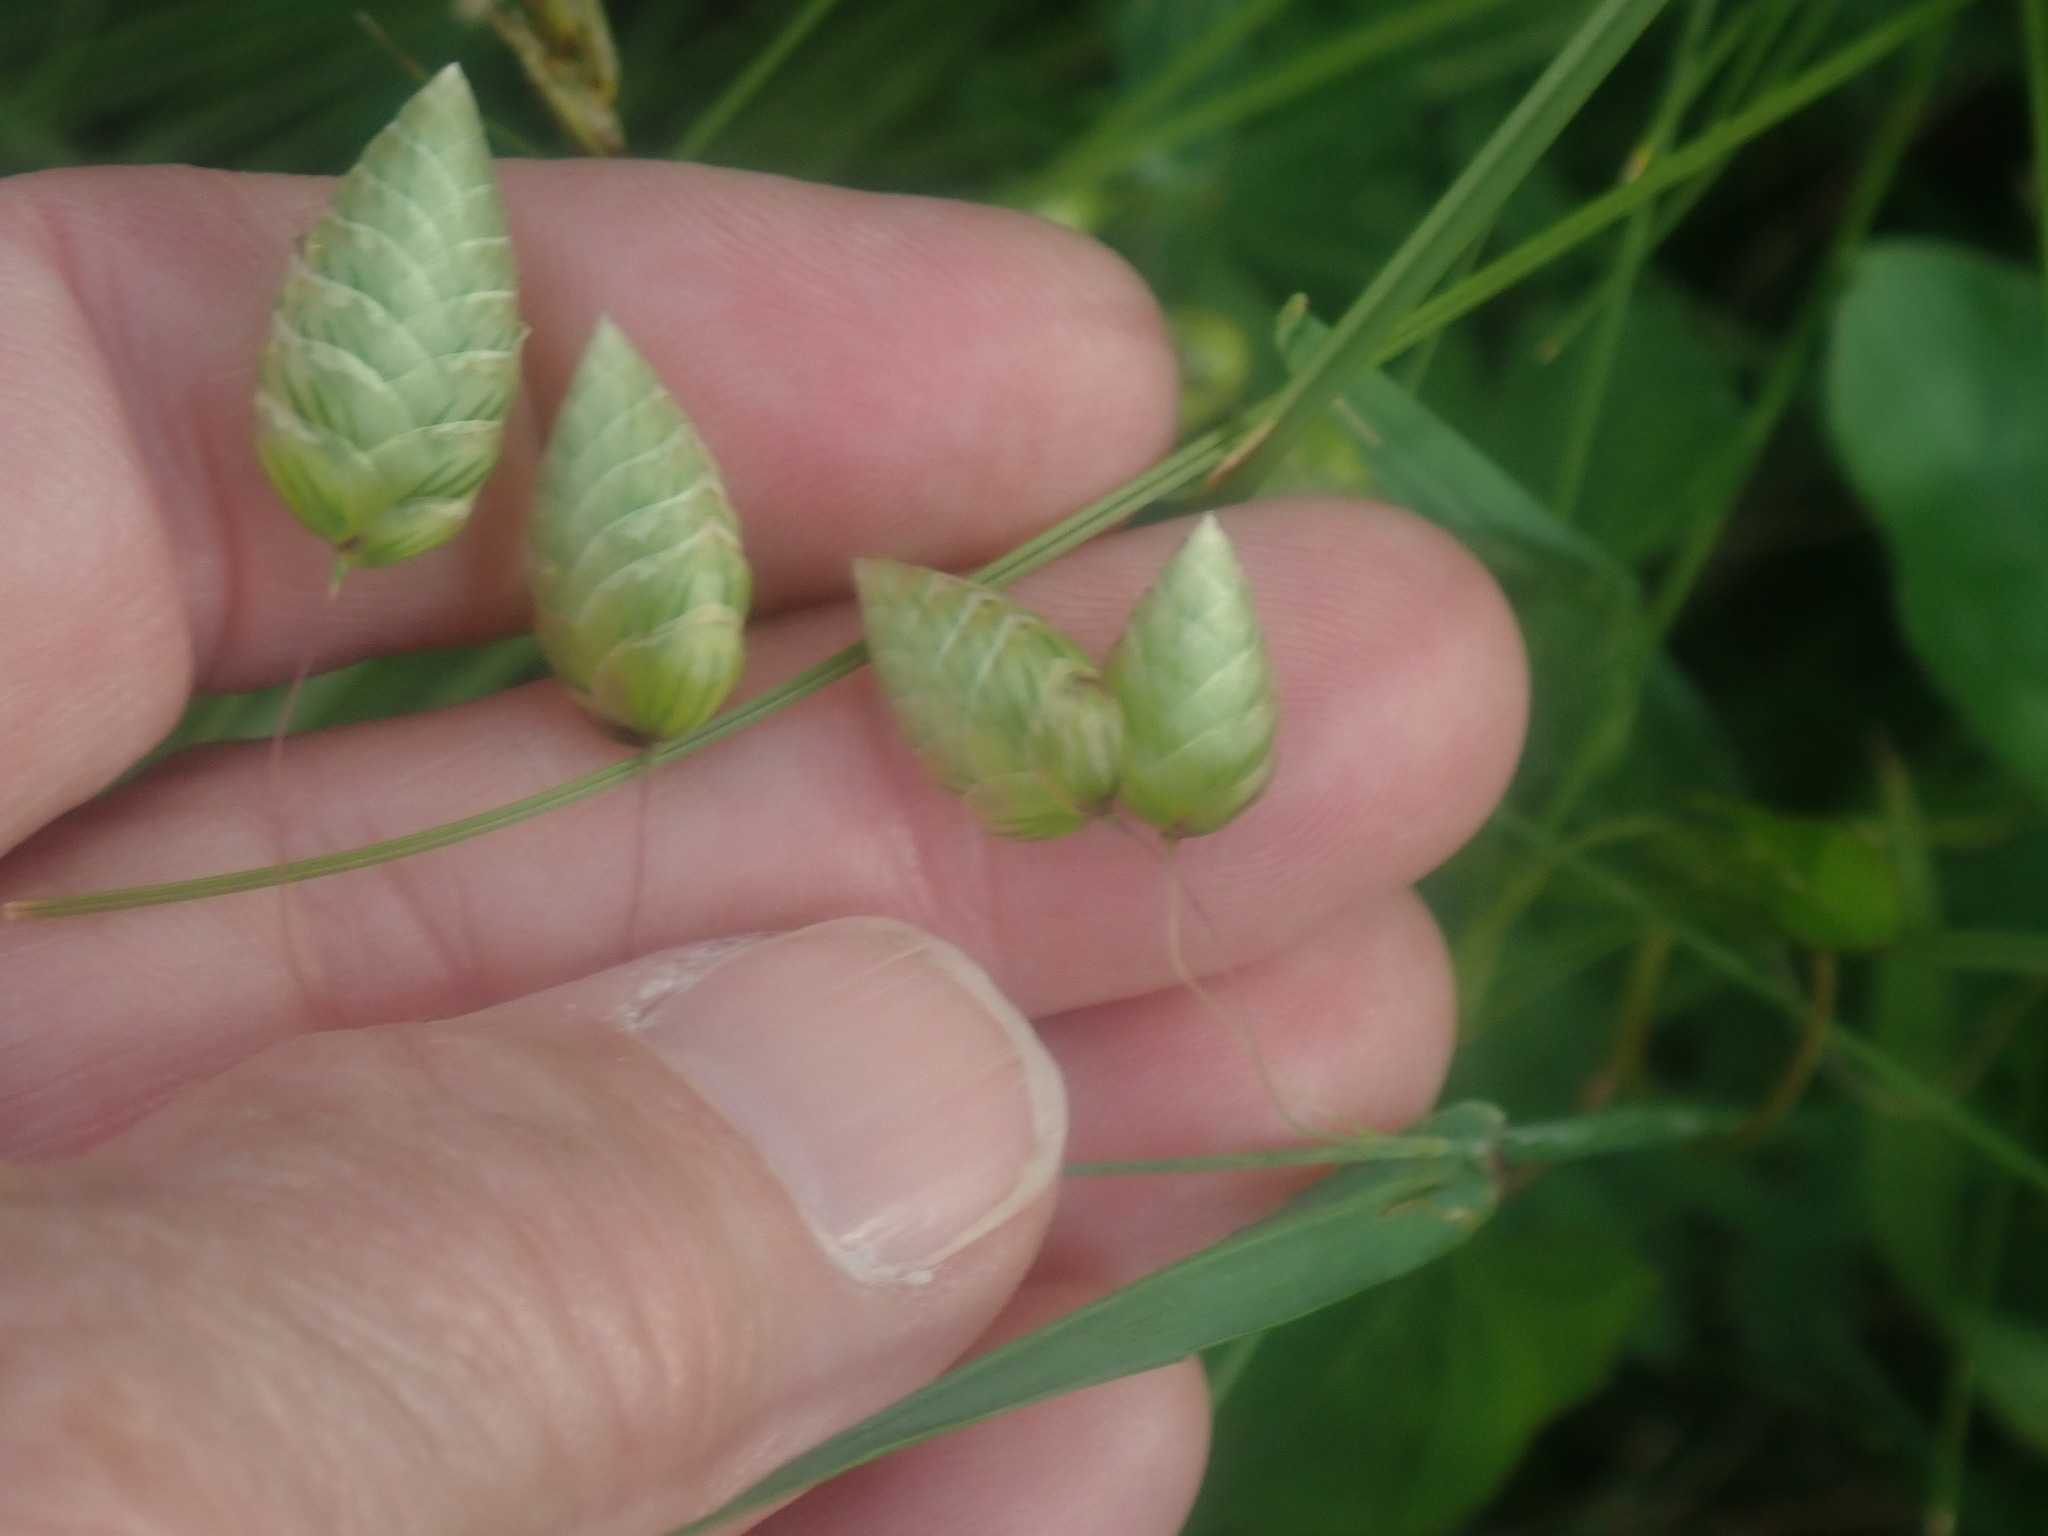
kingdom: Plantae
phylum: Tracheophyta
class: Liliopsida
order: Poales
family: Poaceae
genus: Briza
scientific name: Briza maxima
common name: Big quakinggrass
